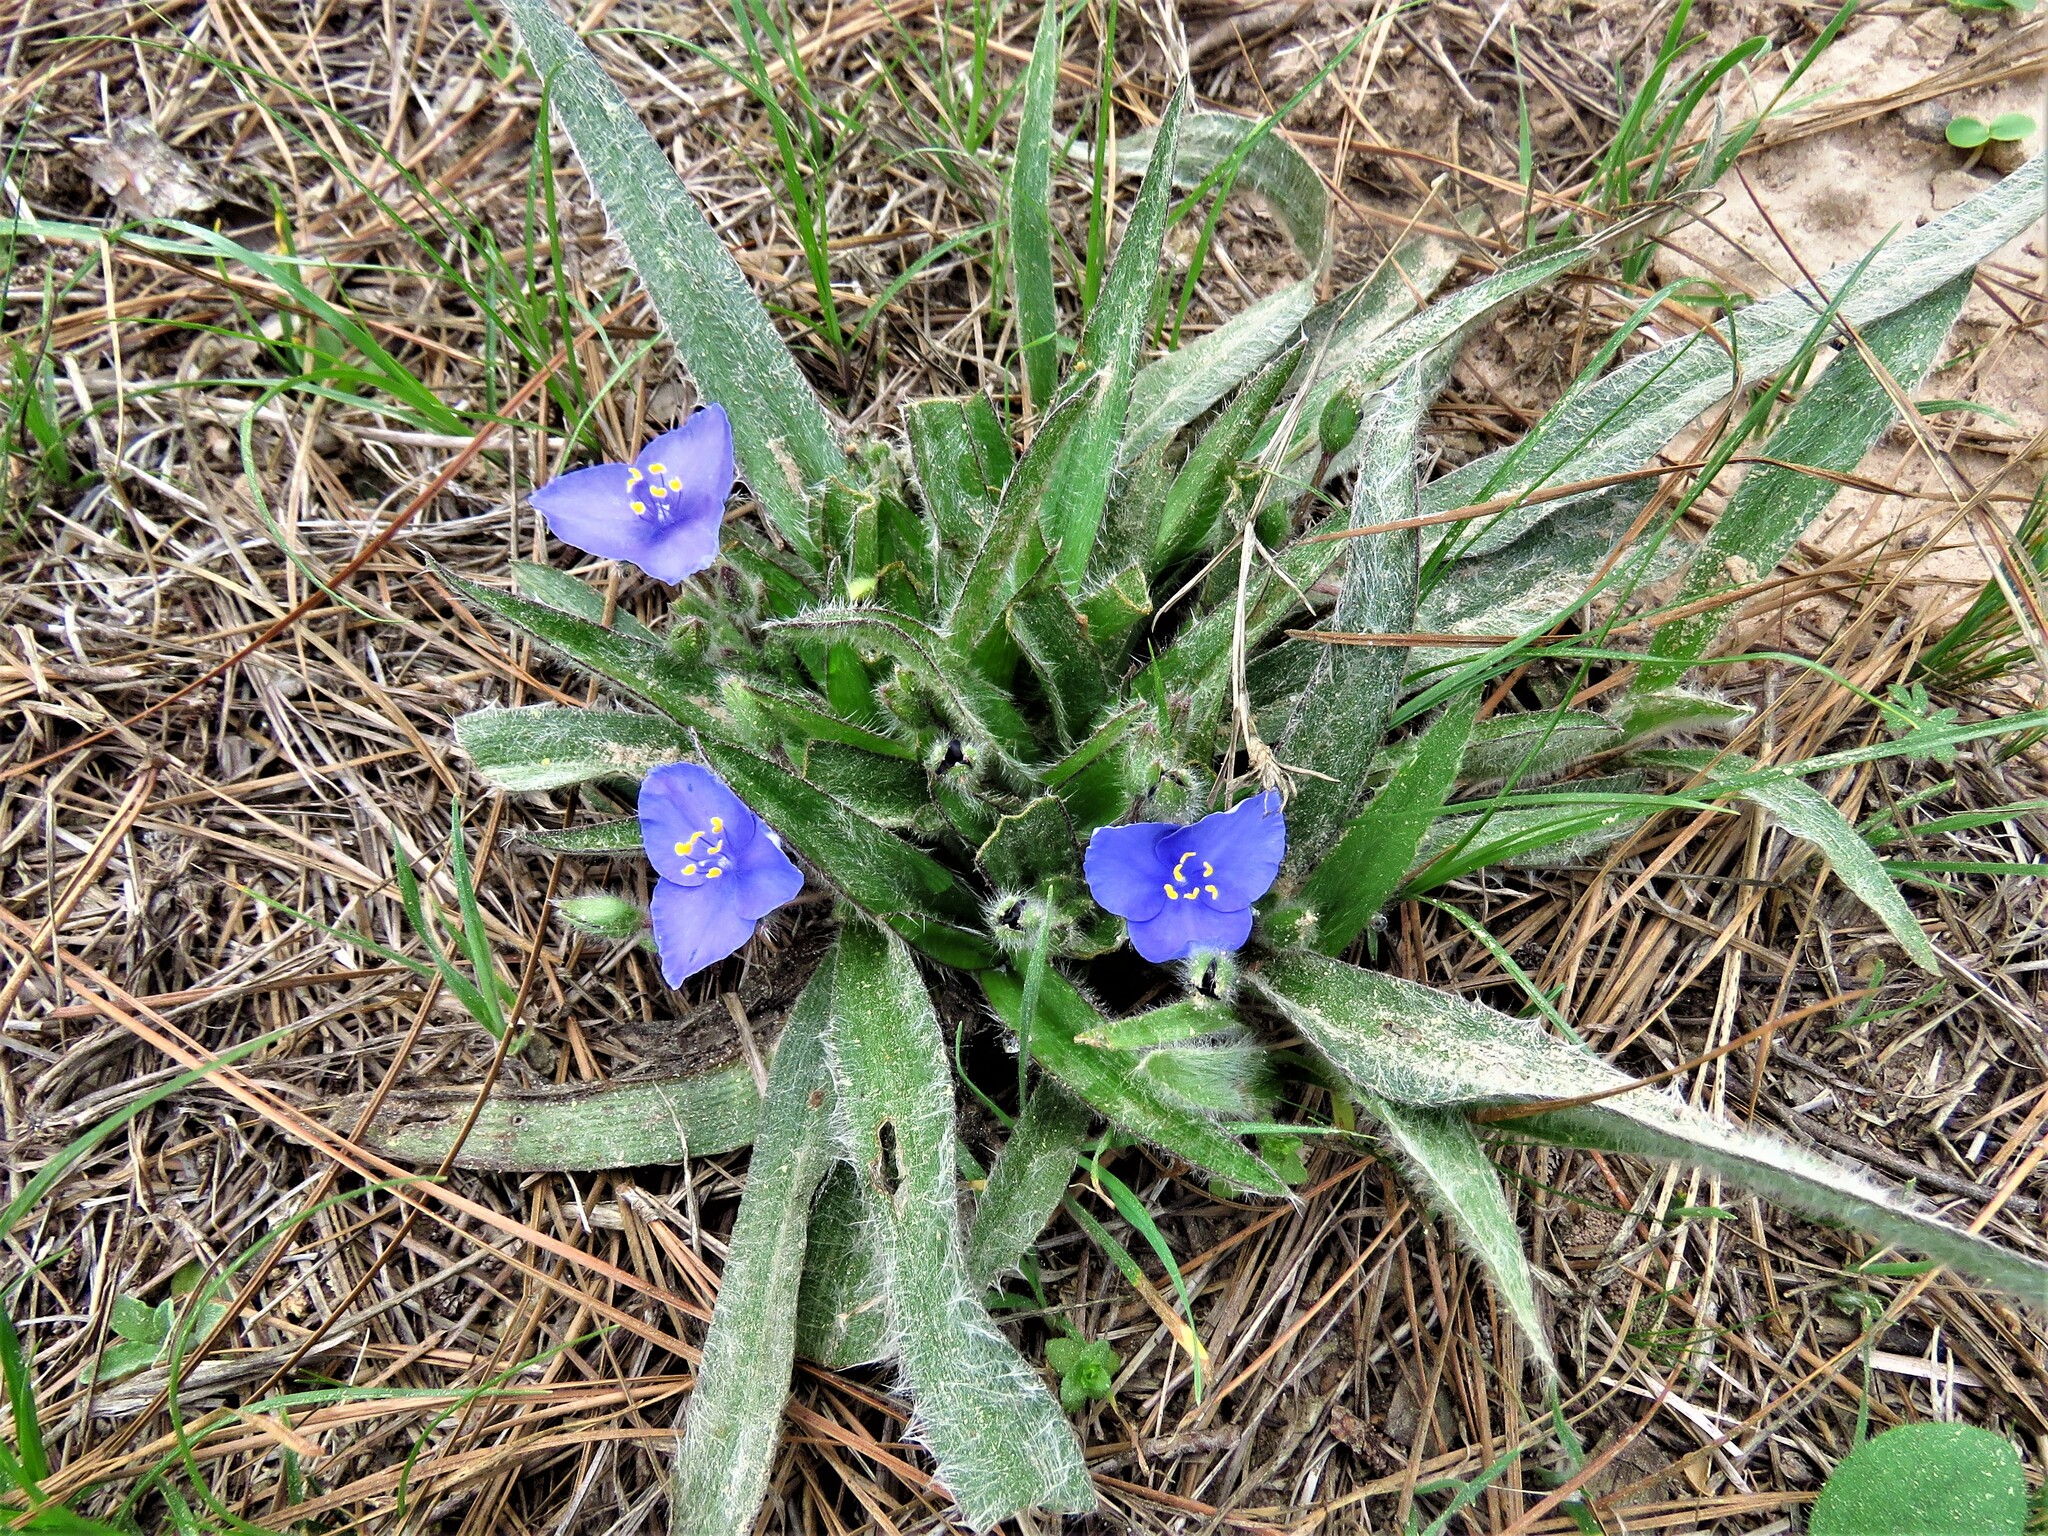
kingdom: Plantae
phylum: Tracheophyta
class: Liliopsida
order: Commelinales
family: Commelinaceae
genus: Tradescantia
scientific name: Tradescantia subacaulis
